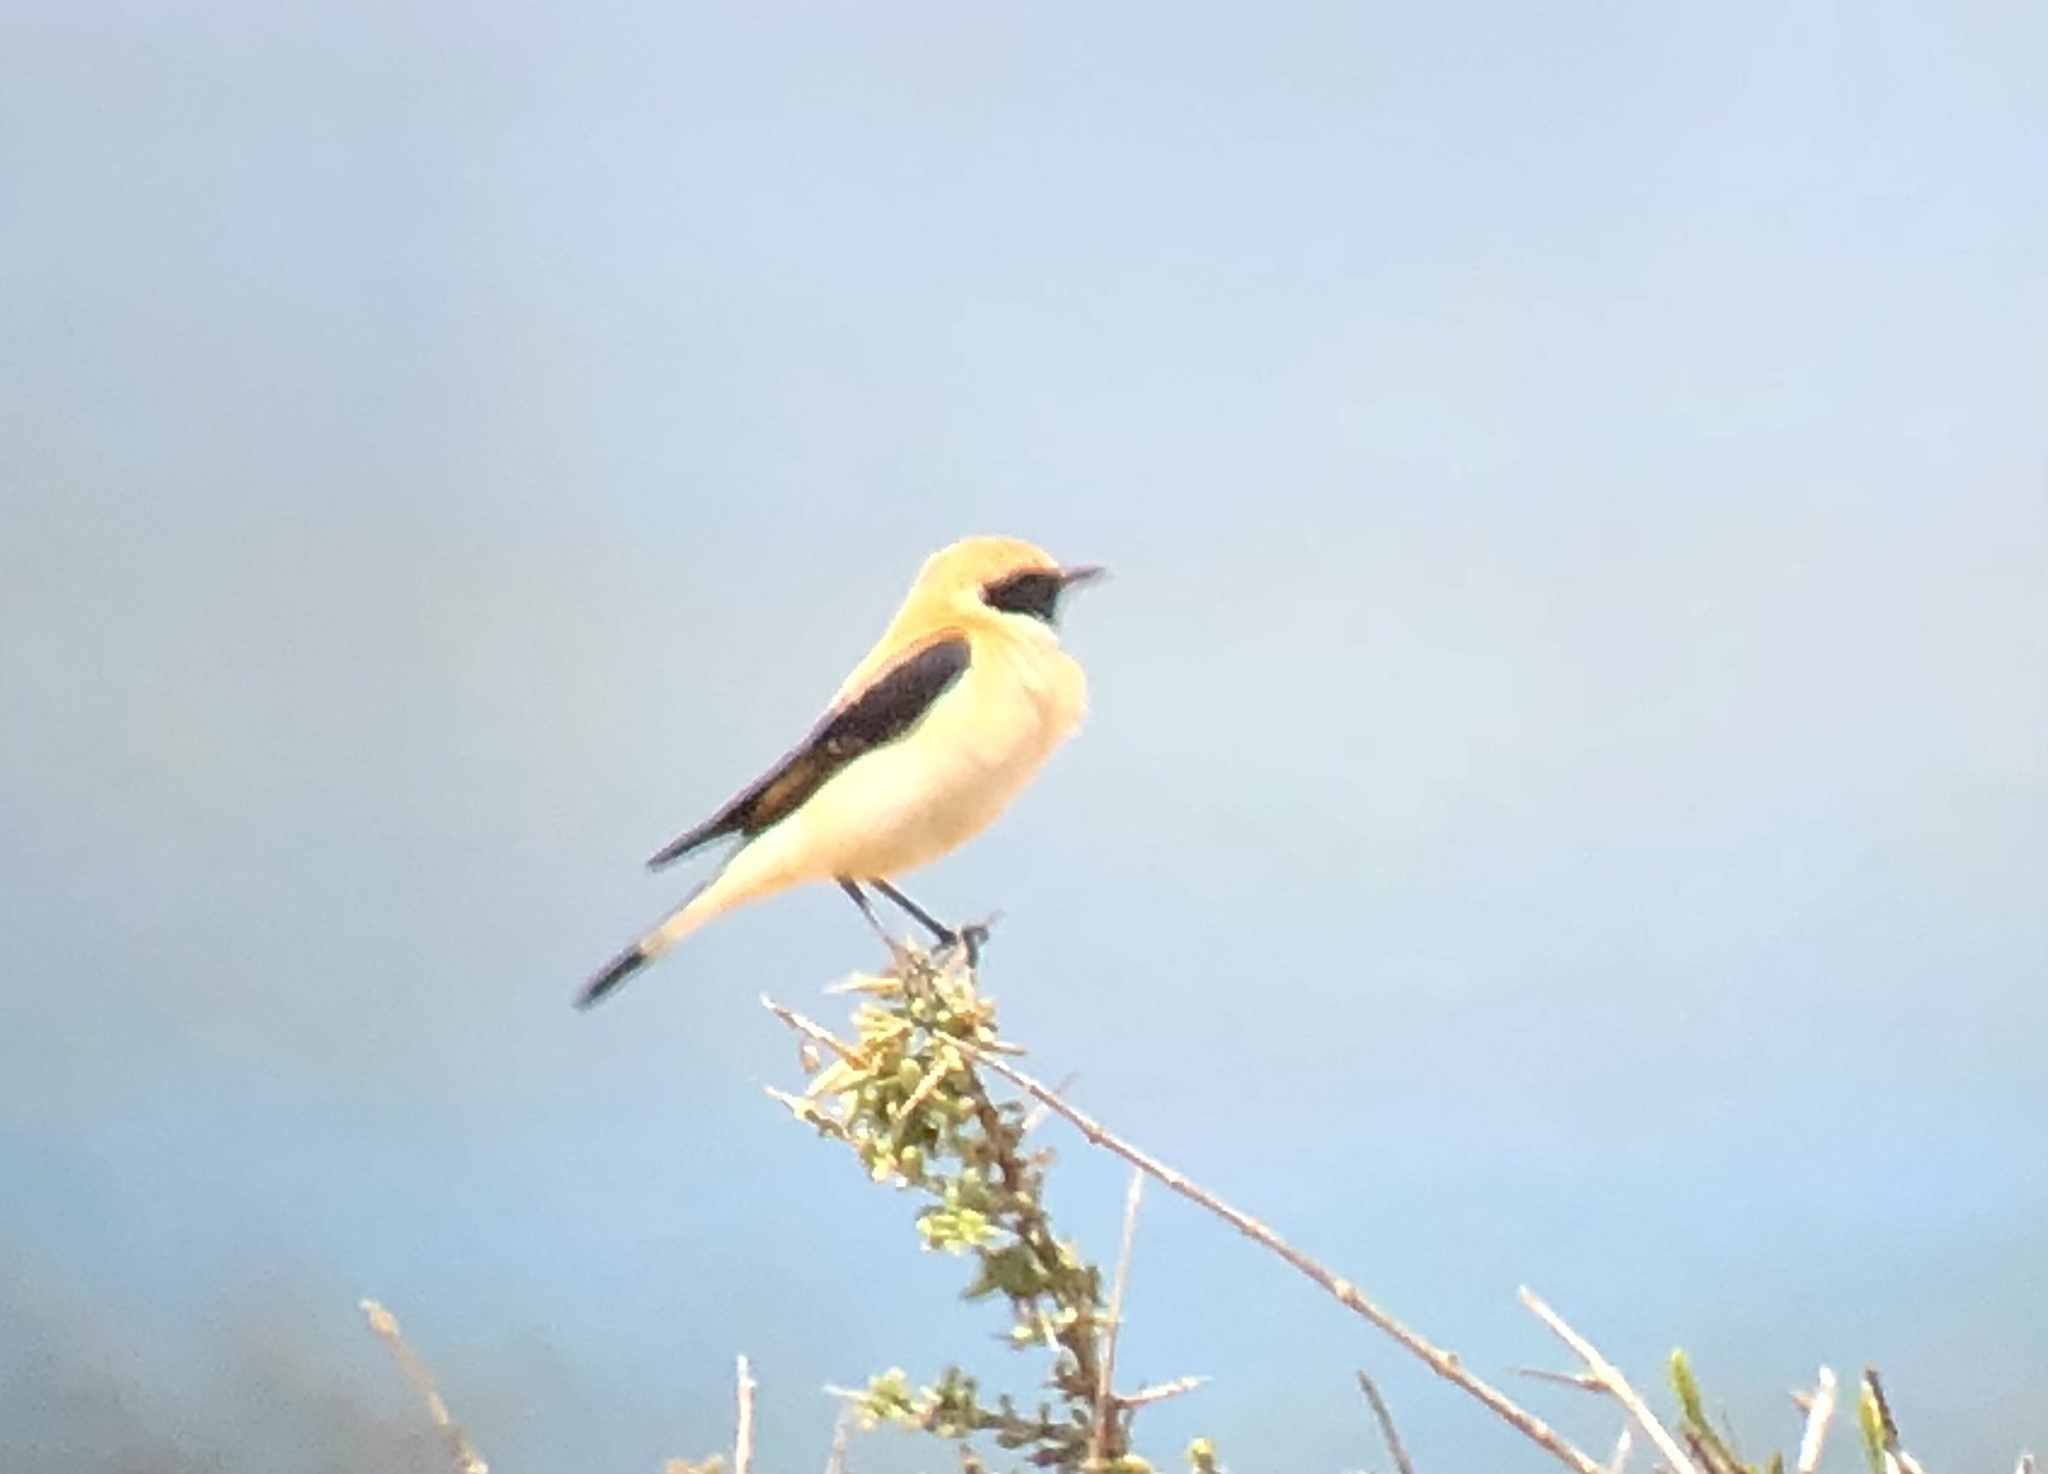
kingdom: Animalia
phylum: Chordata
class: Aves
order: Passeriformes
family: Muscicapidae
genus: Oenanthe
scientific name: Oenanthe hispanica
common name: Black-eared wheatear
